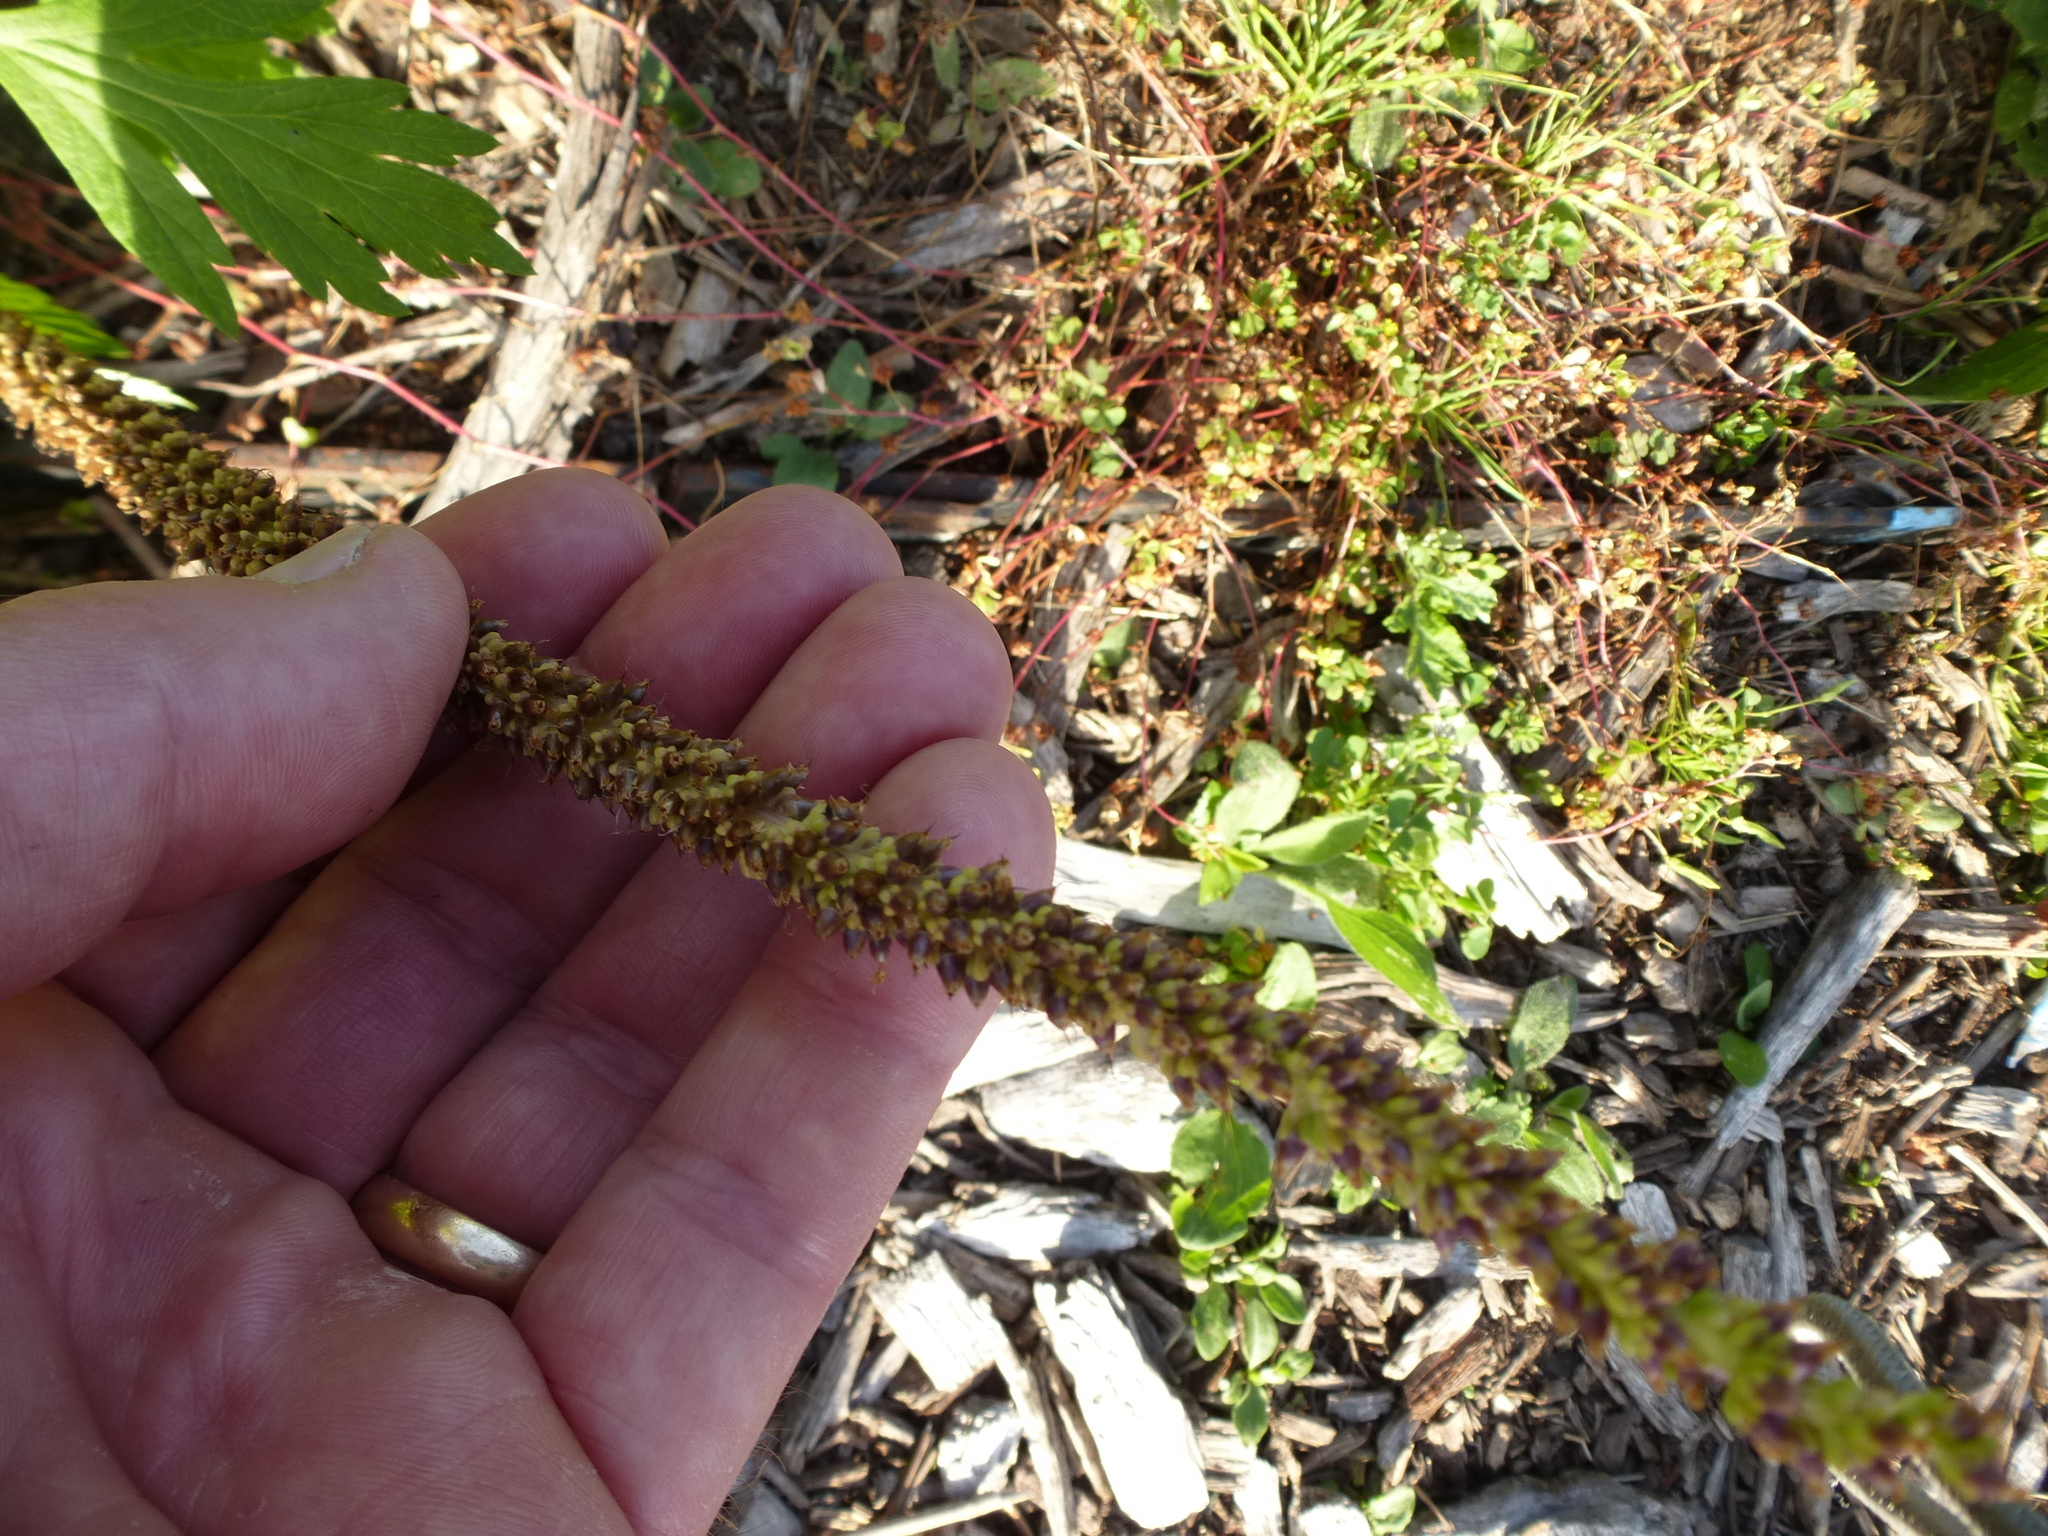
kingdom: Plantae
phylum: Tracheophyta
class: Magnoliopsida
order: Lamiales
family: Plantaginaceae
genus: Plantago
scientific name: Plantago major
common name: Common plantain
